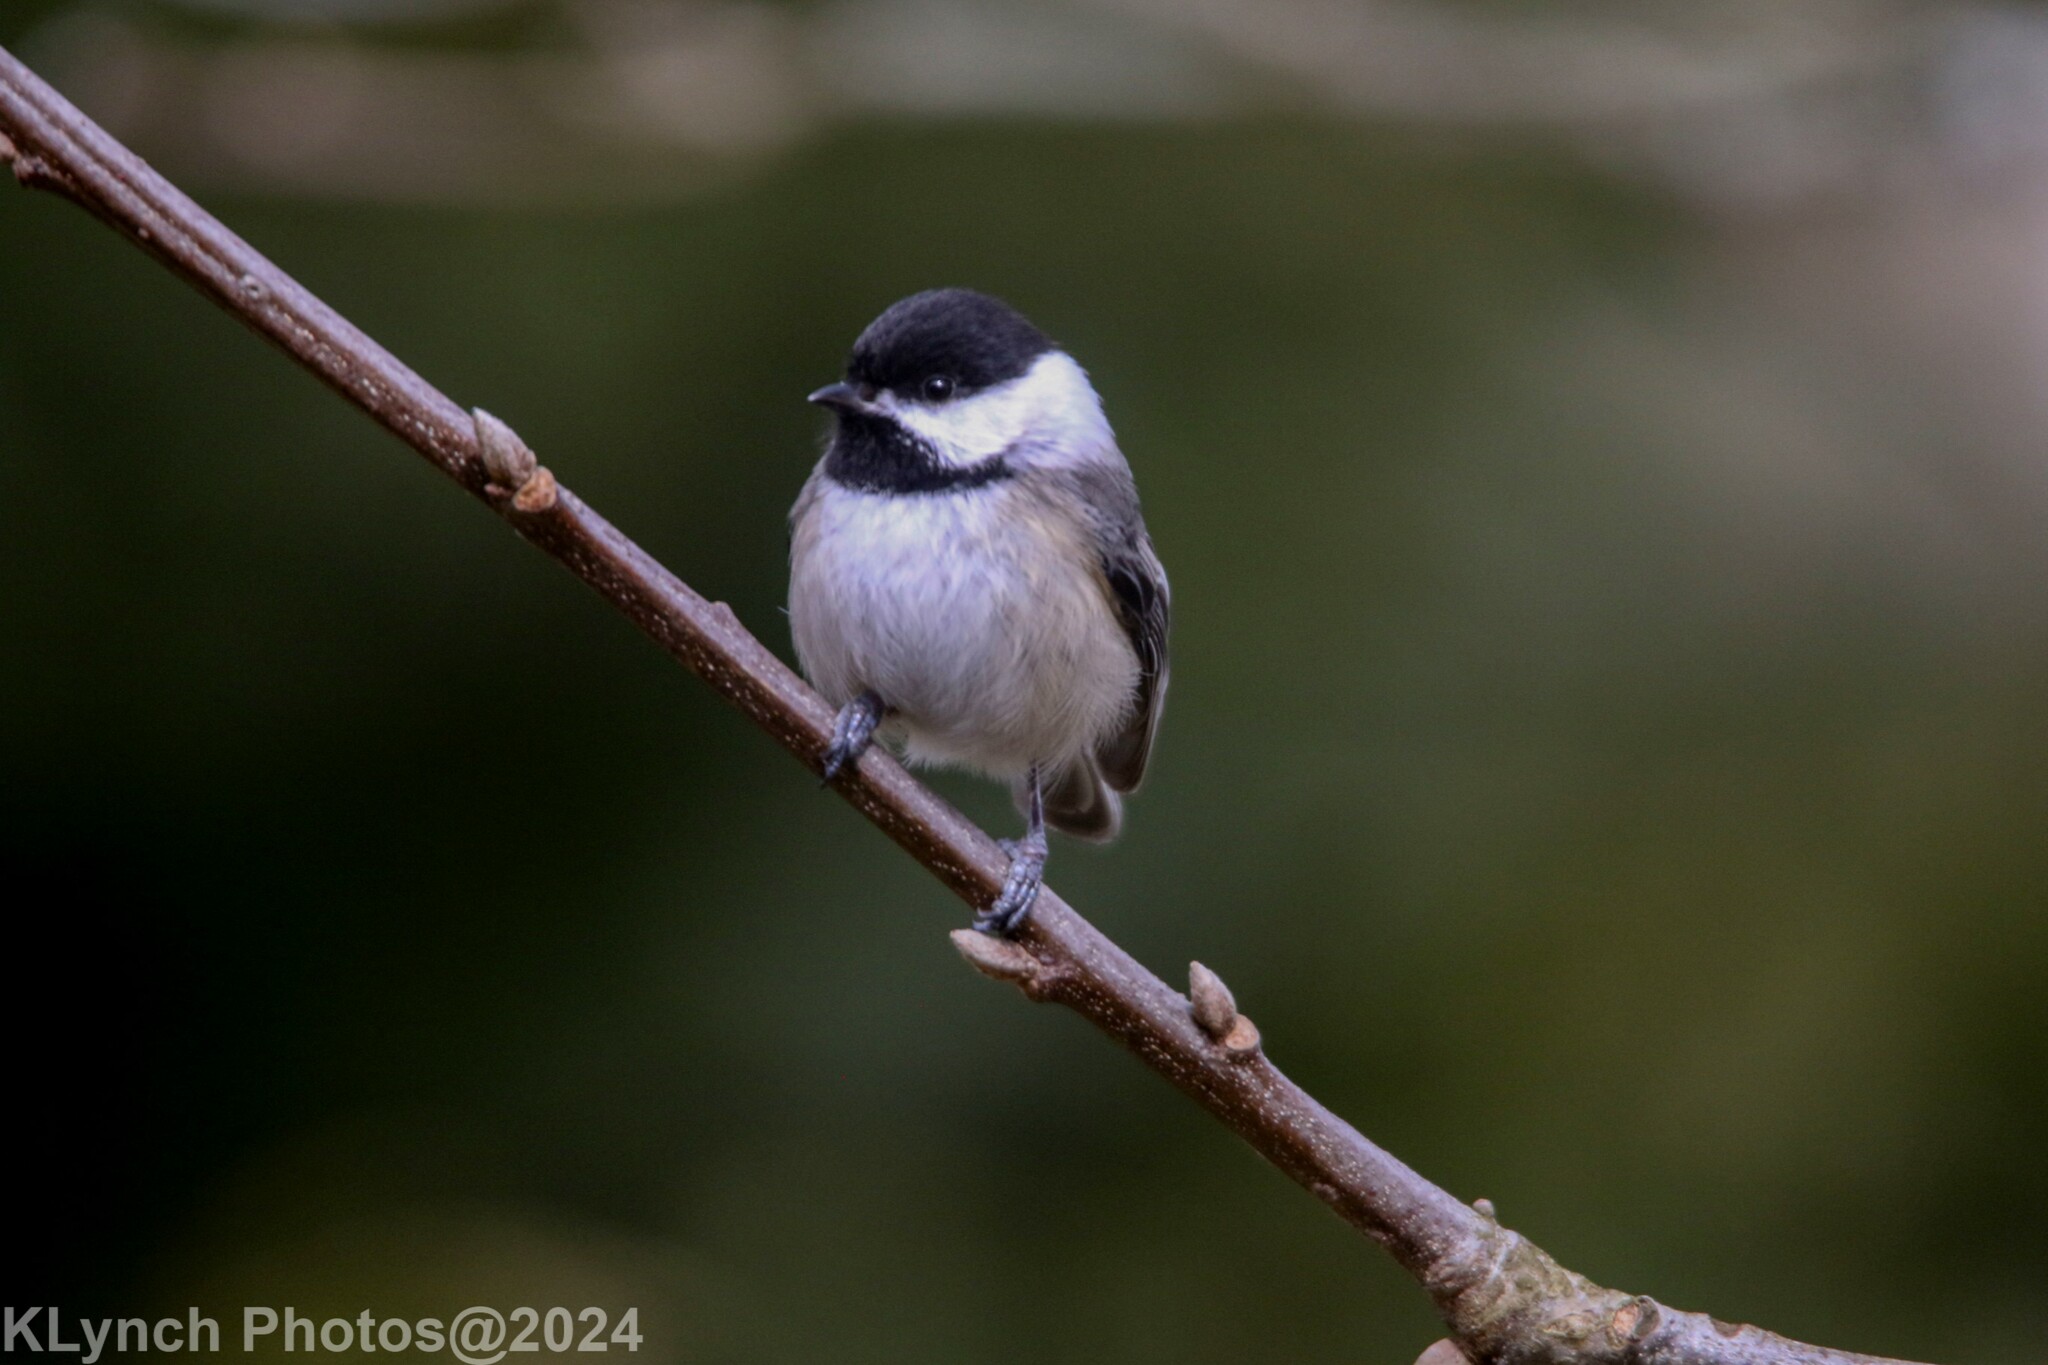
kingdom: Animalia
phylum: Chordata
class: Aves
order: Passeriformes
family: Paridae
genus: Poecile
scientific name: Poecile atricapillus
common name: Black-capped chickadee
